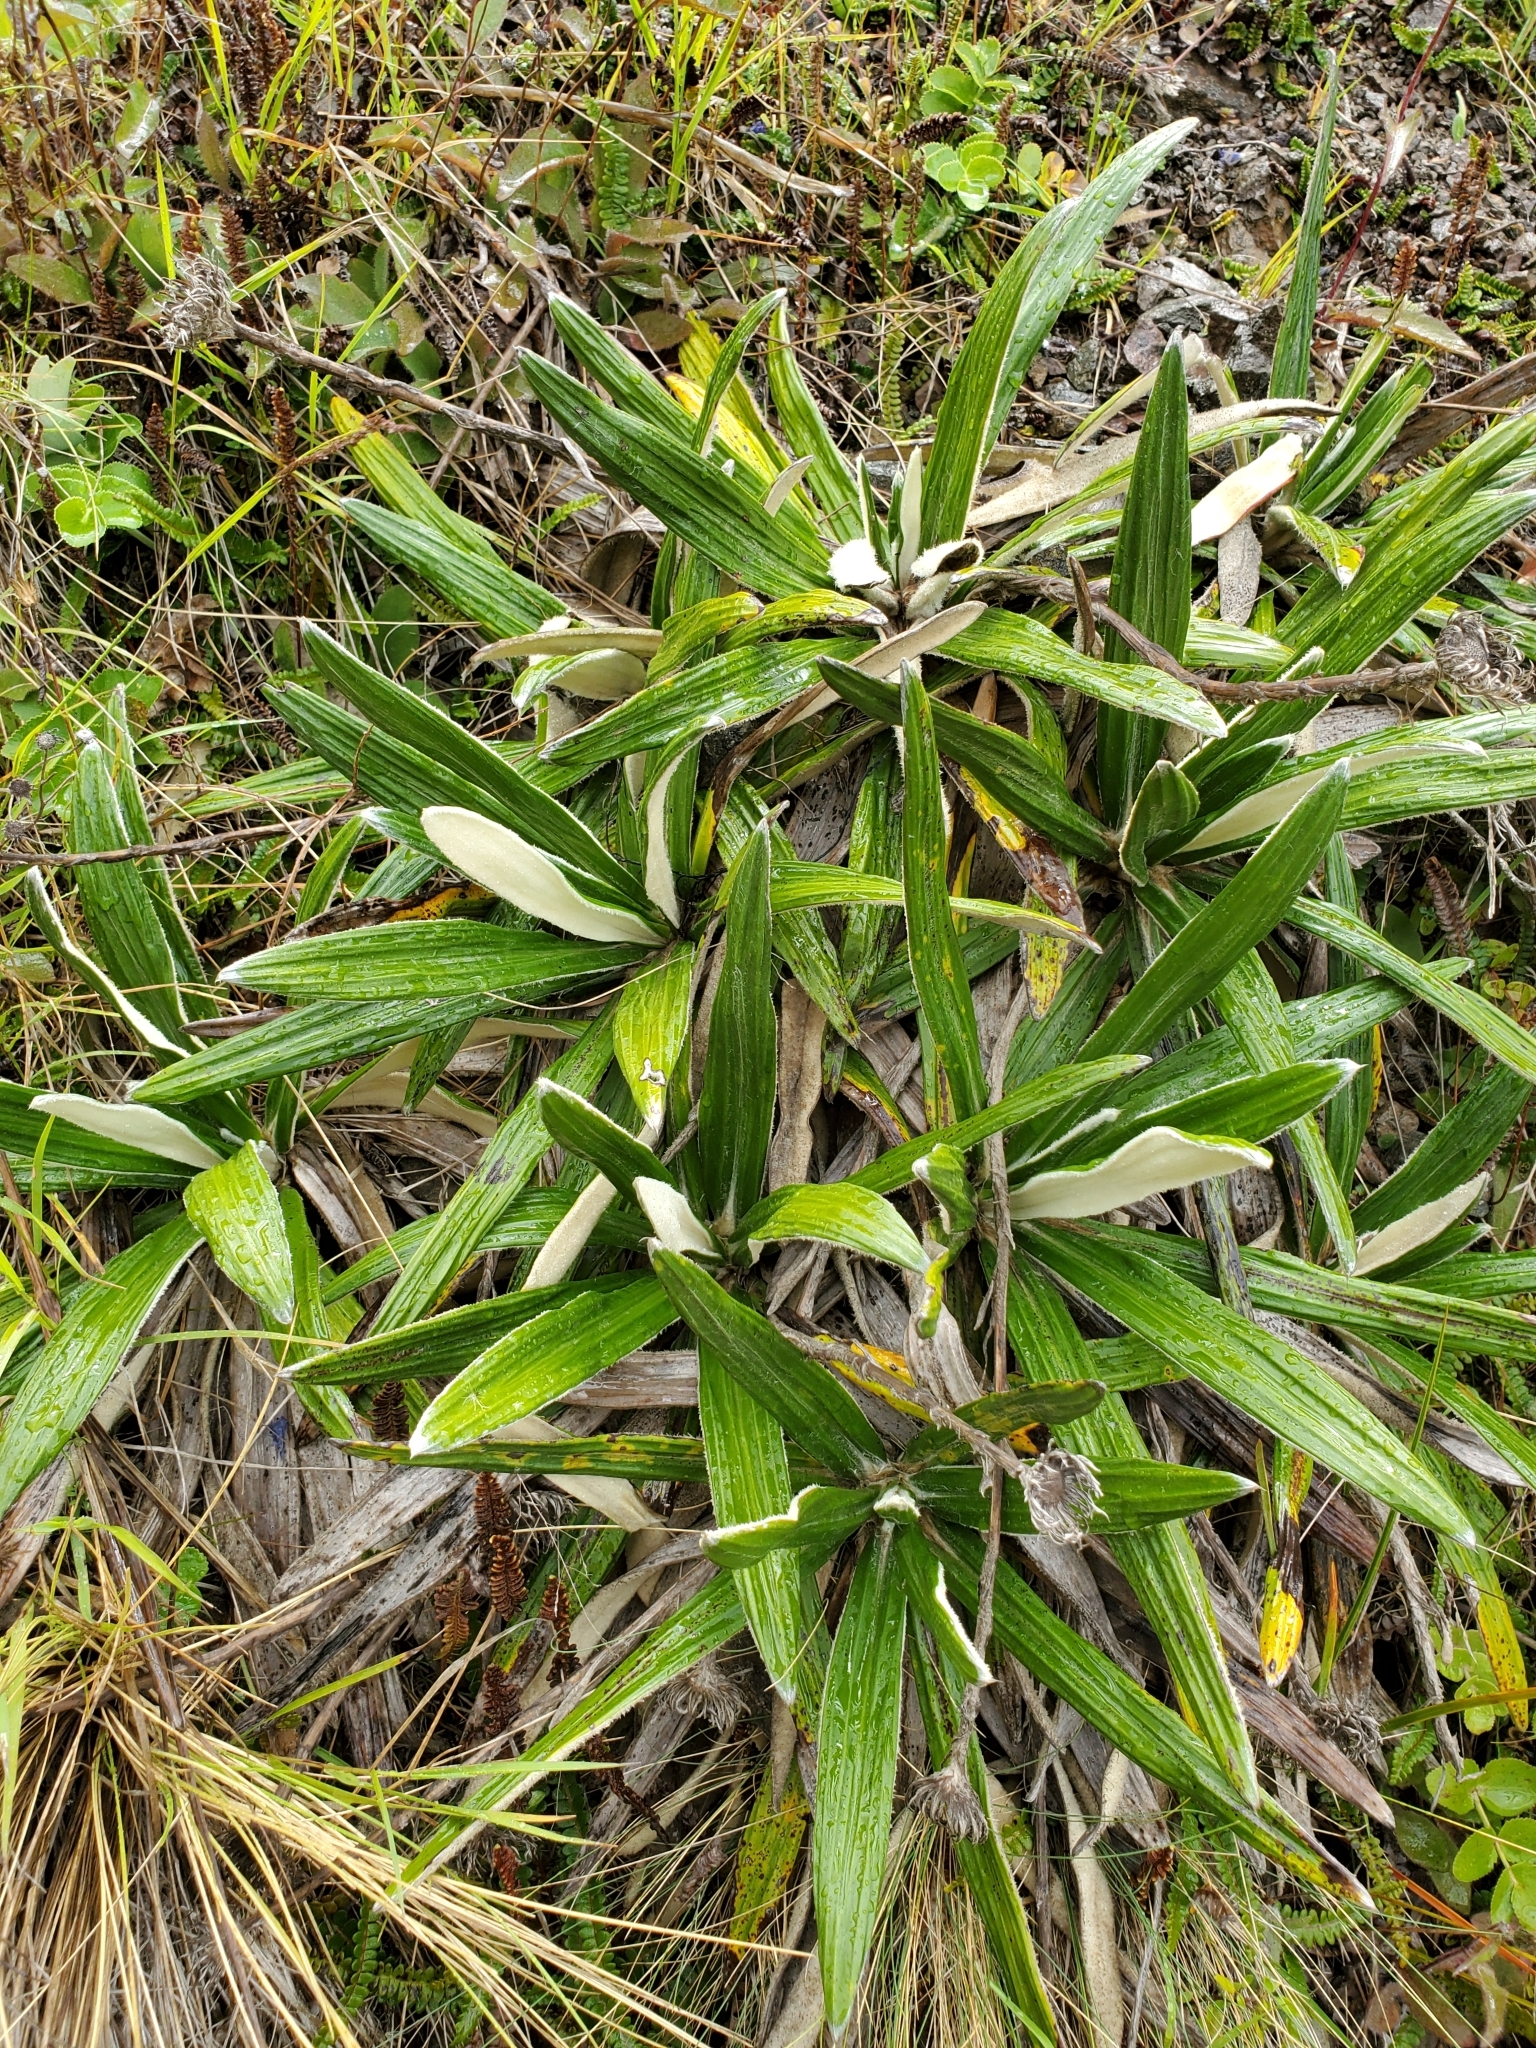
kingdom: Plantae
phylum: Tracheophyta
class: Magnoliopsida
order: Asterales
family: Asteraceae
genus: Celmisia
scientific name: Celmisia spectabilis
